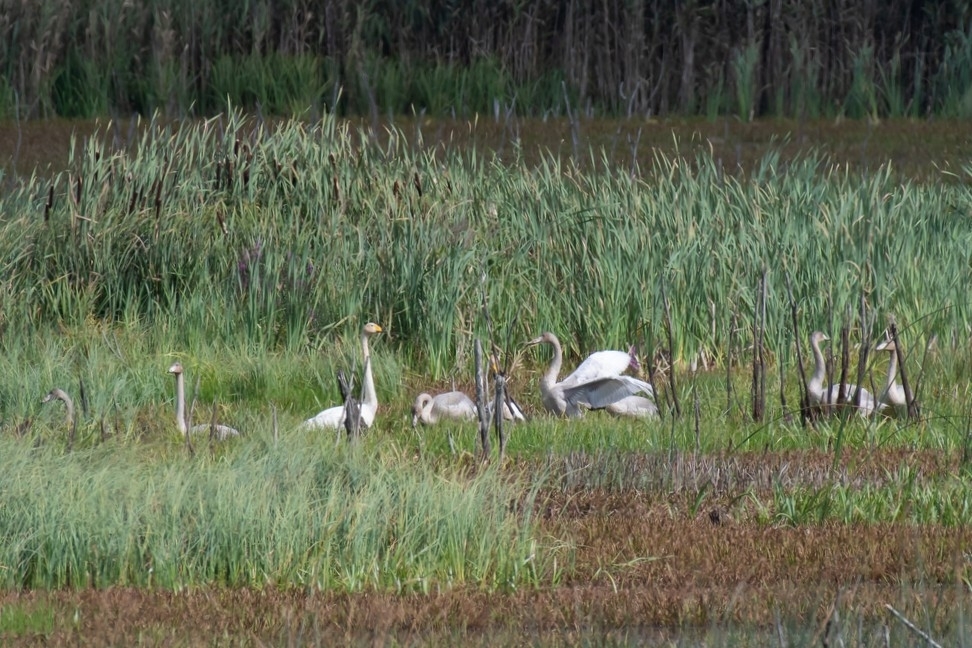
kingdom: Animalia
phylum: Chordata
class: Aves
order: Anseriformes
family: Anatidae
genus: Cygnus
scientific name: Cygnus cygnus
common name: Whooper swan
